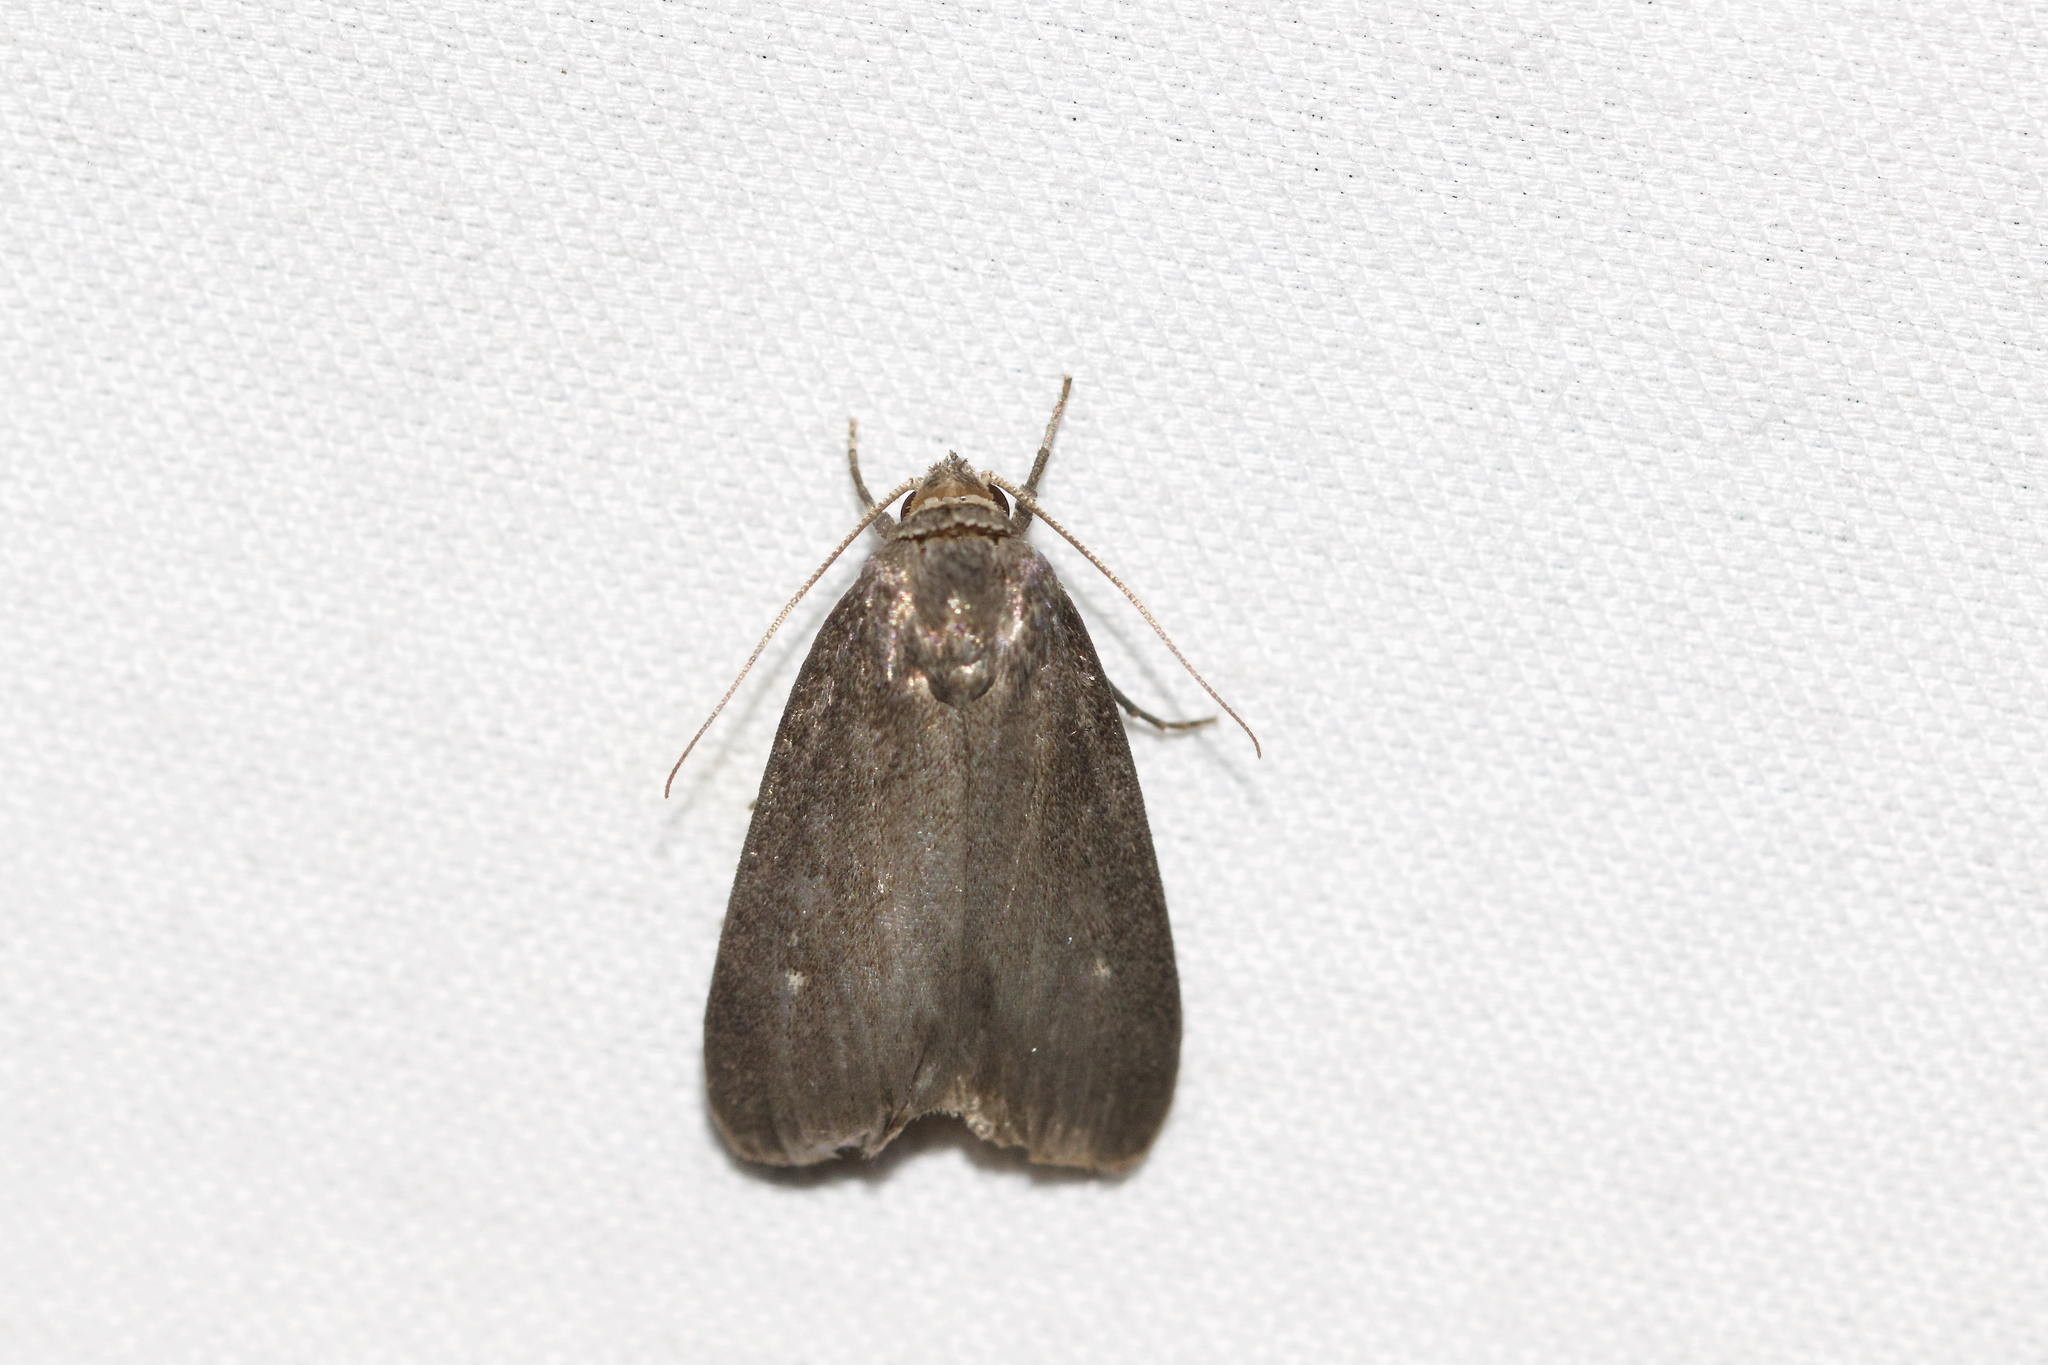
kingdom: Animalia
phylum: Arthropoda
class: Insecta
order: Lepidoptera
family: Noctuidae
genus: Proxenus
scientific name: Proxenus miranda
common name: Miranda moth
